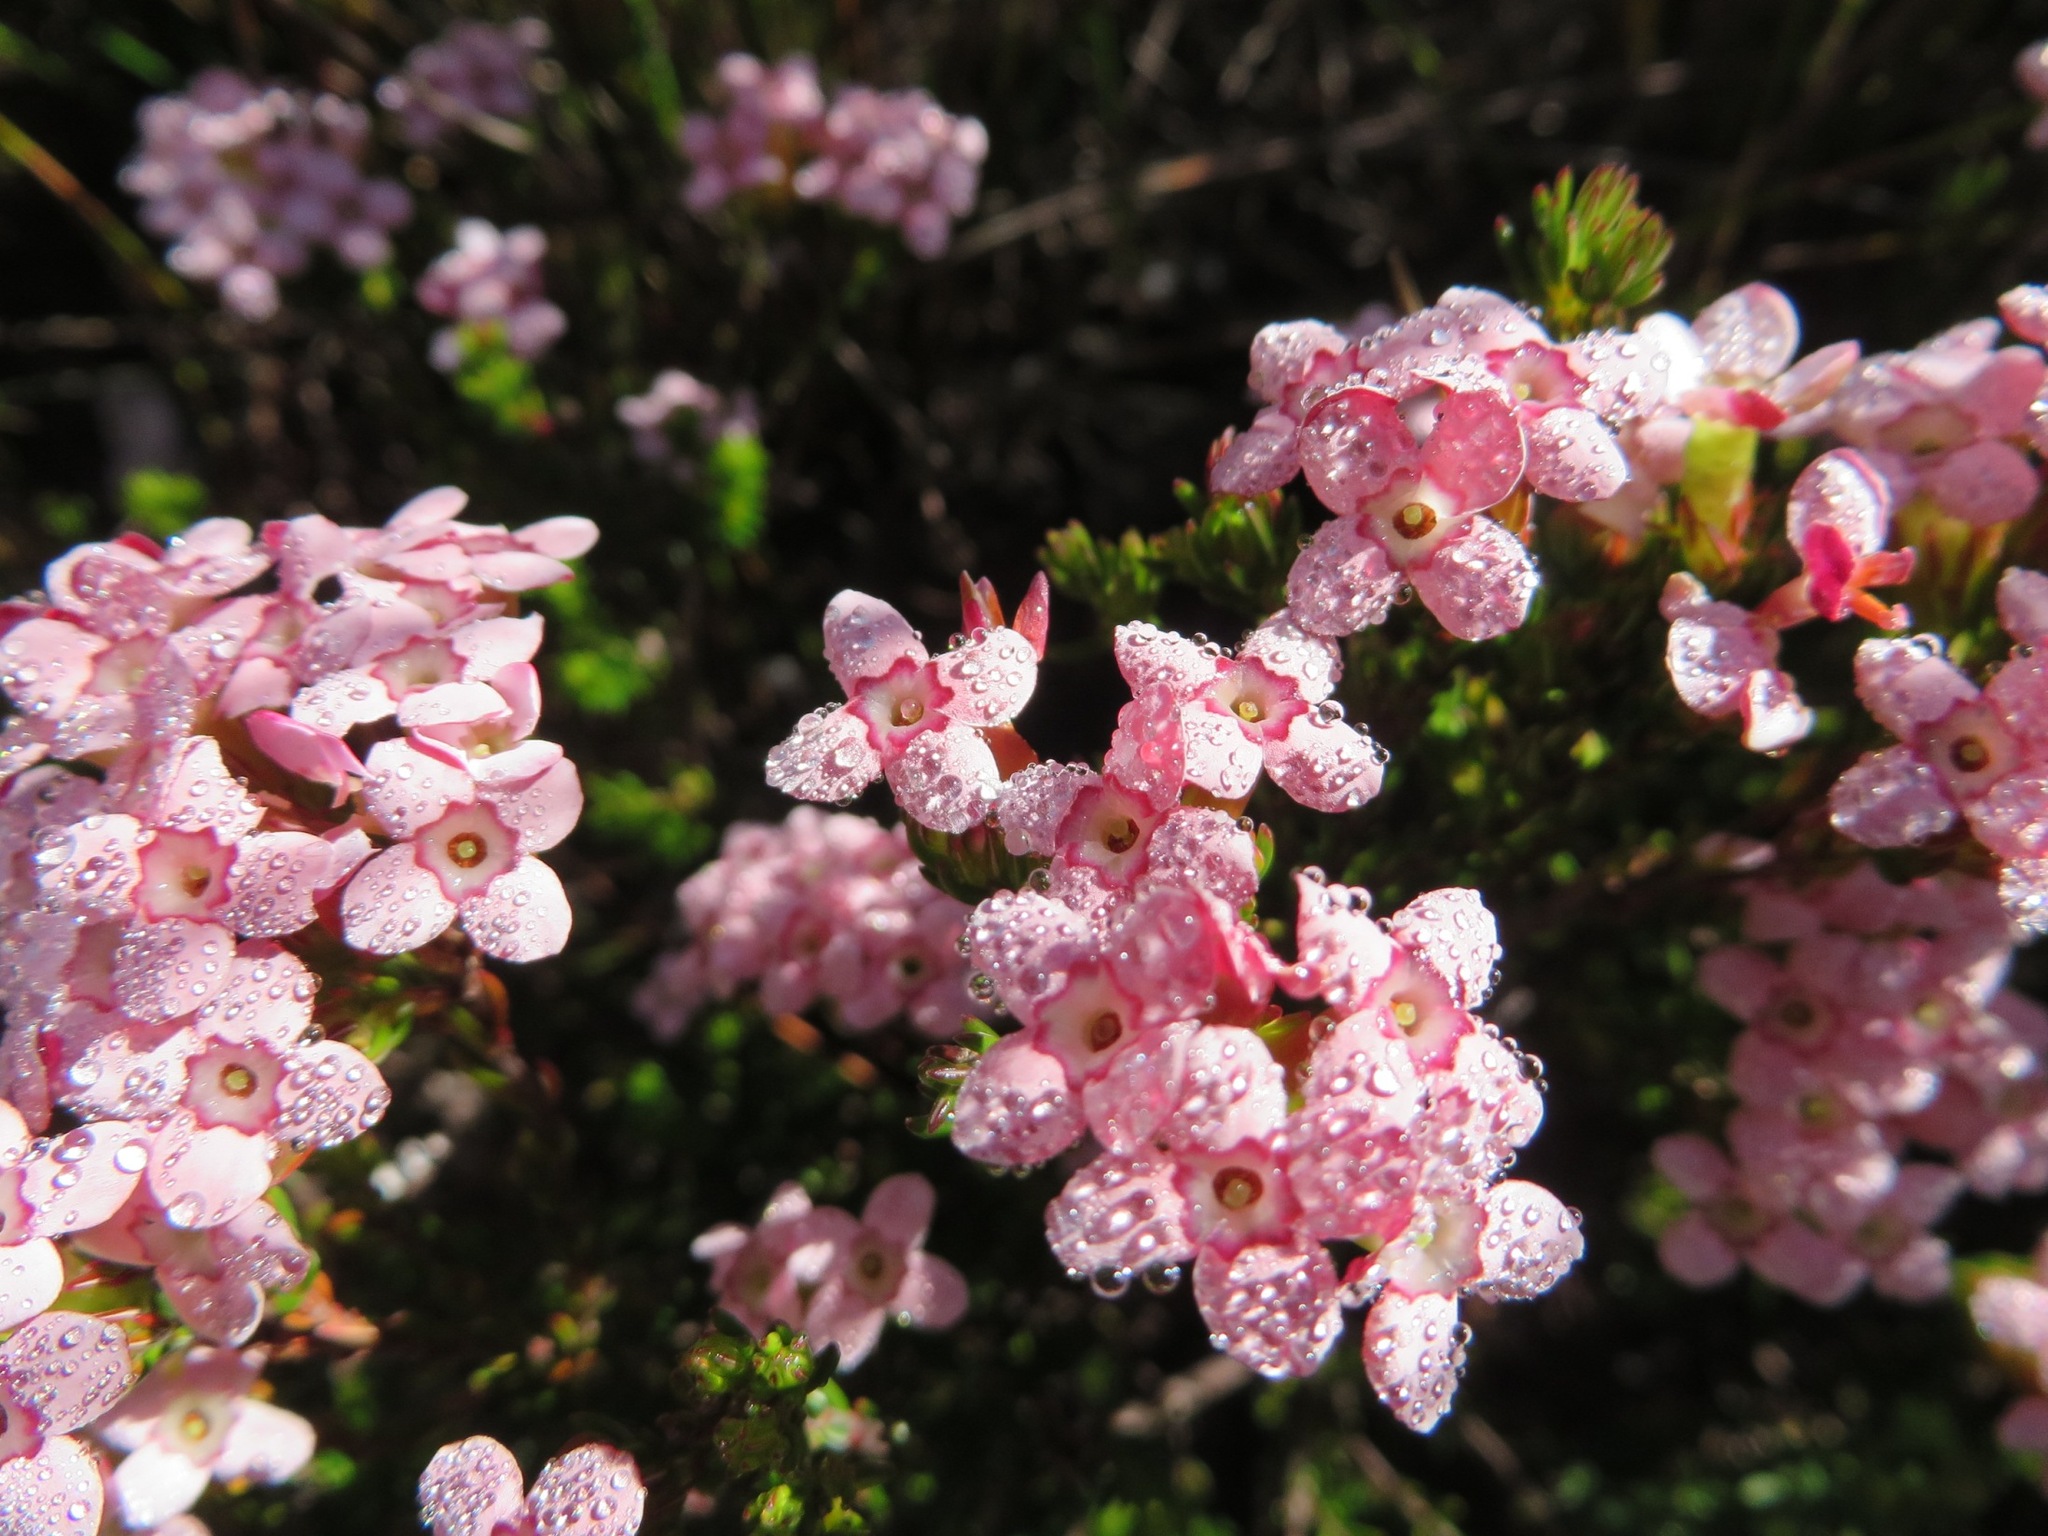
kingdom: Plantae
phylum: Tracheophyta
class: Magnoliopsida
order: Ericales
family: Ericaceae
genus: Erica
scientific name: Erica fastigiata
